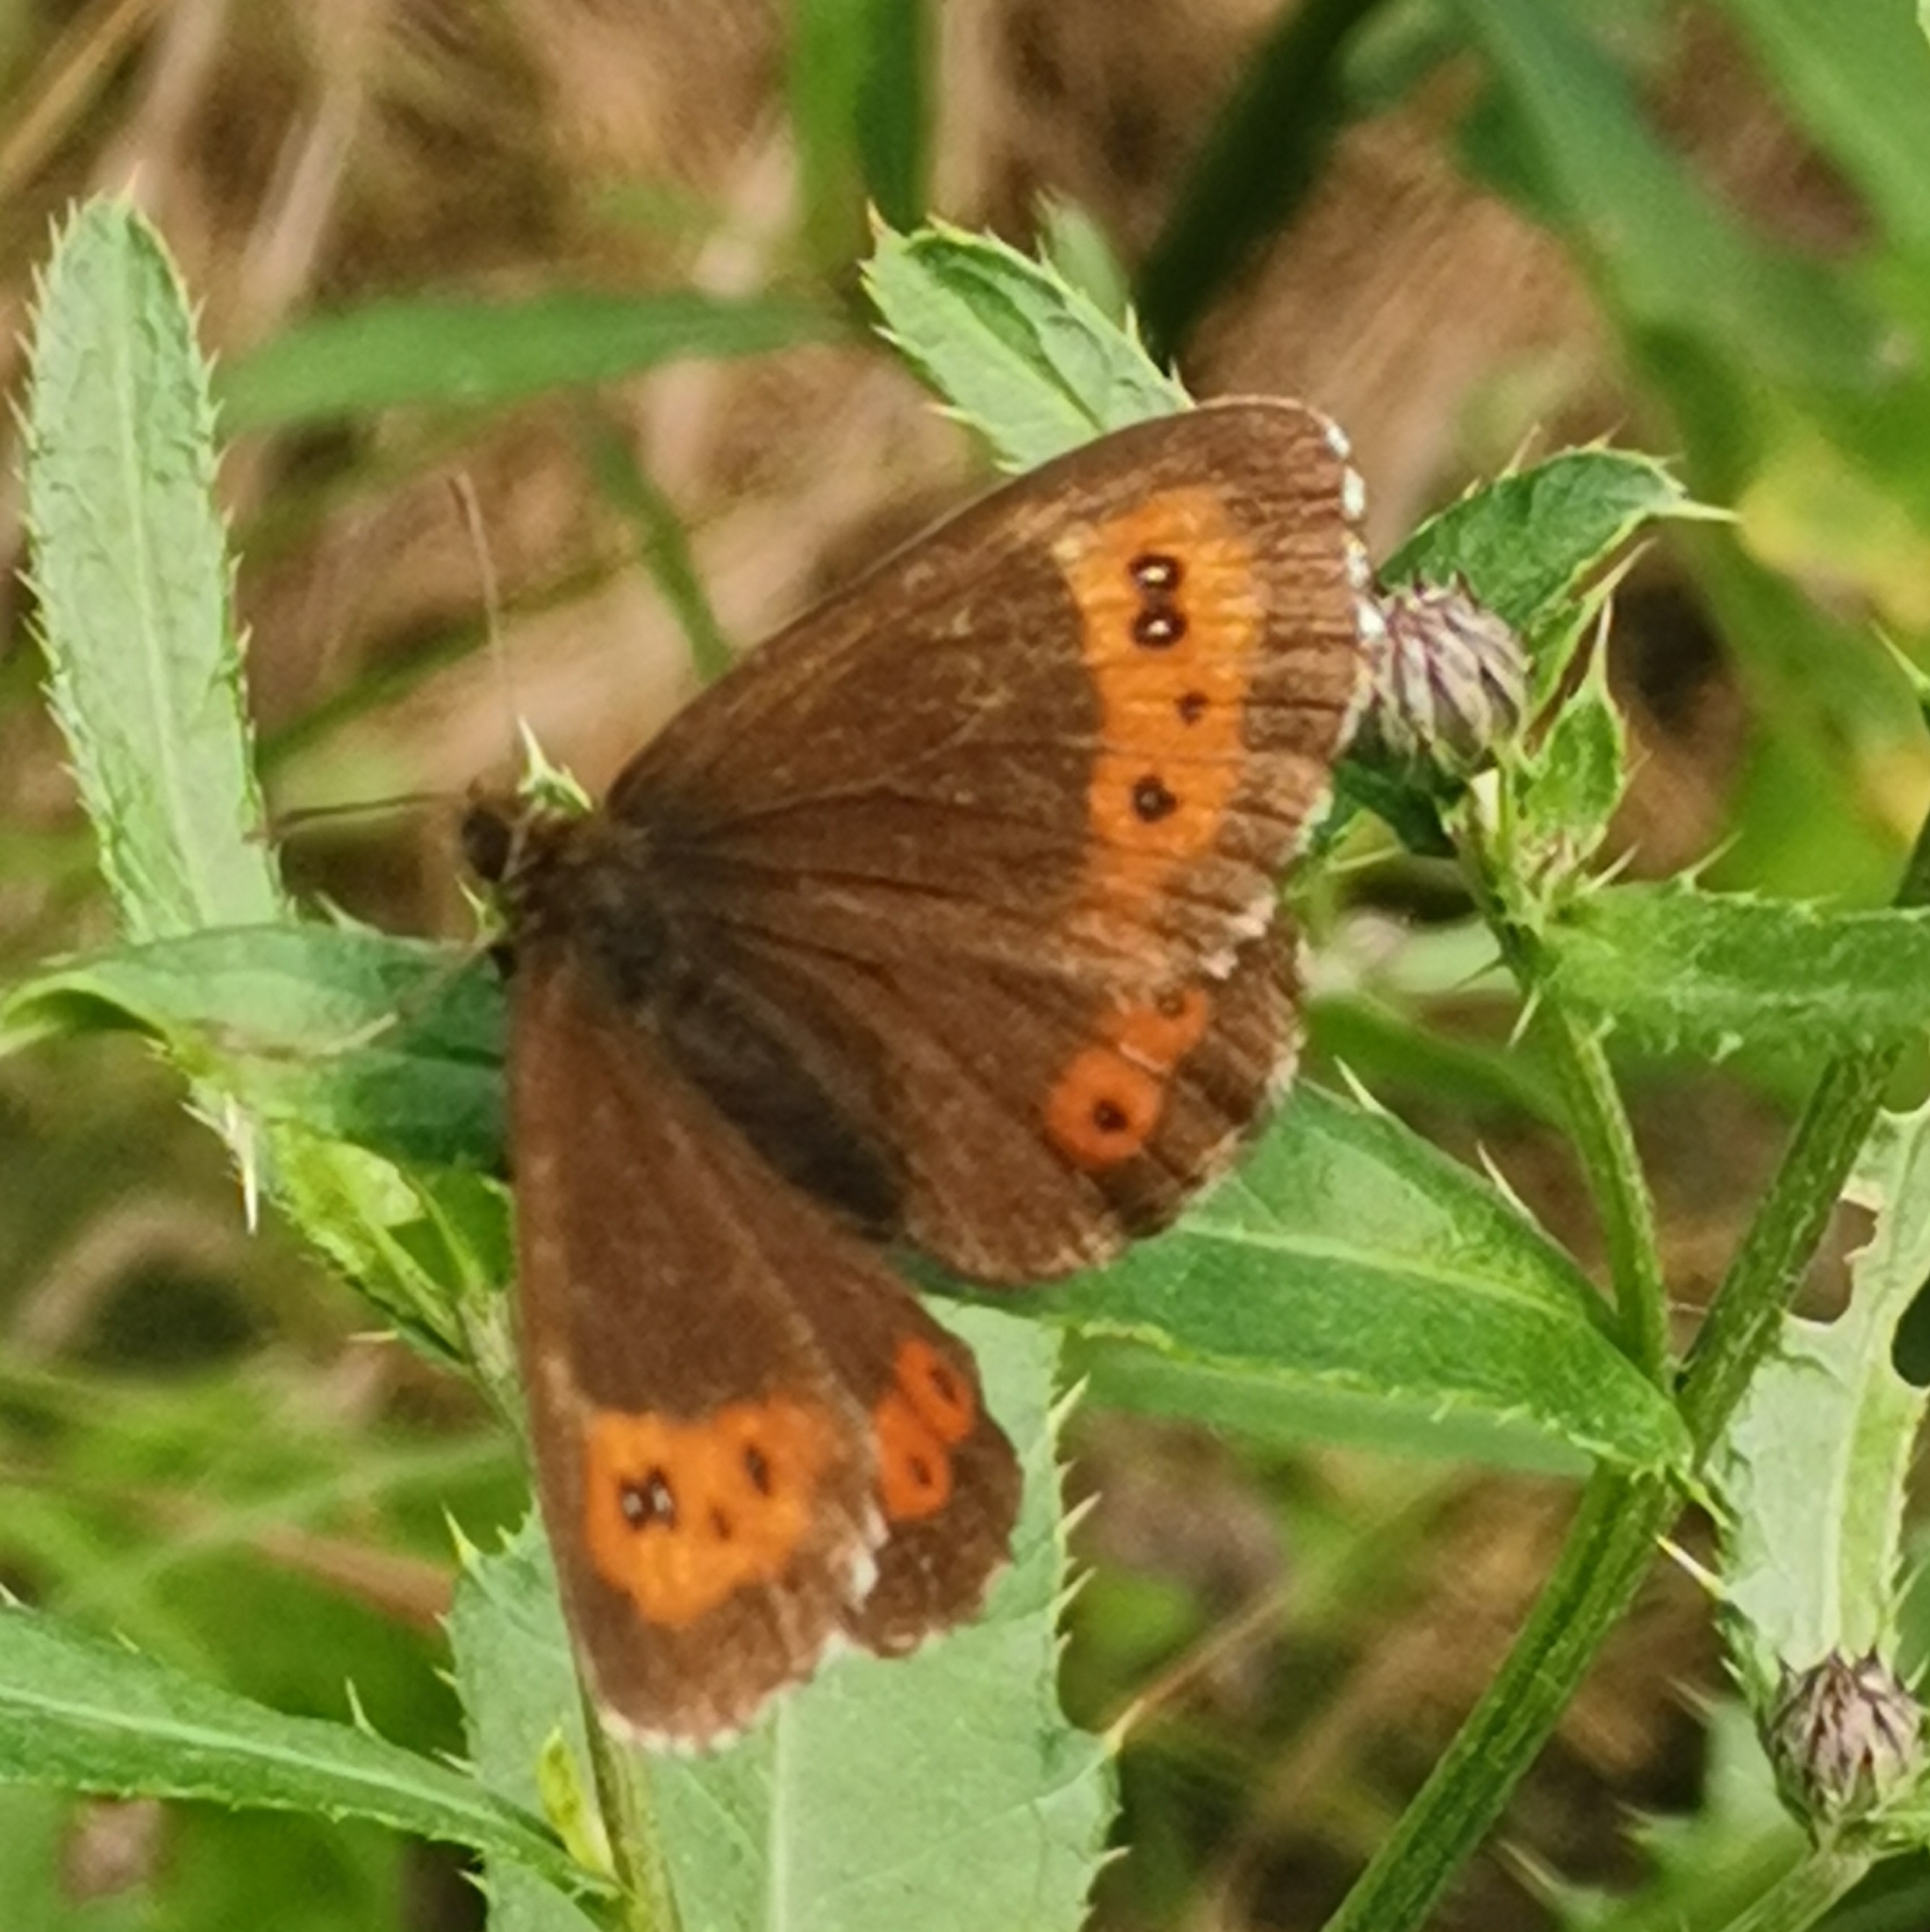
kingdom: Animalia
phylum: Arthropoda
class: Insecta
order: Lepidoptera
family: Nymphalidae
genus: Erebia
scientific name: Erebia ligea
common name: Arran brown
